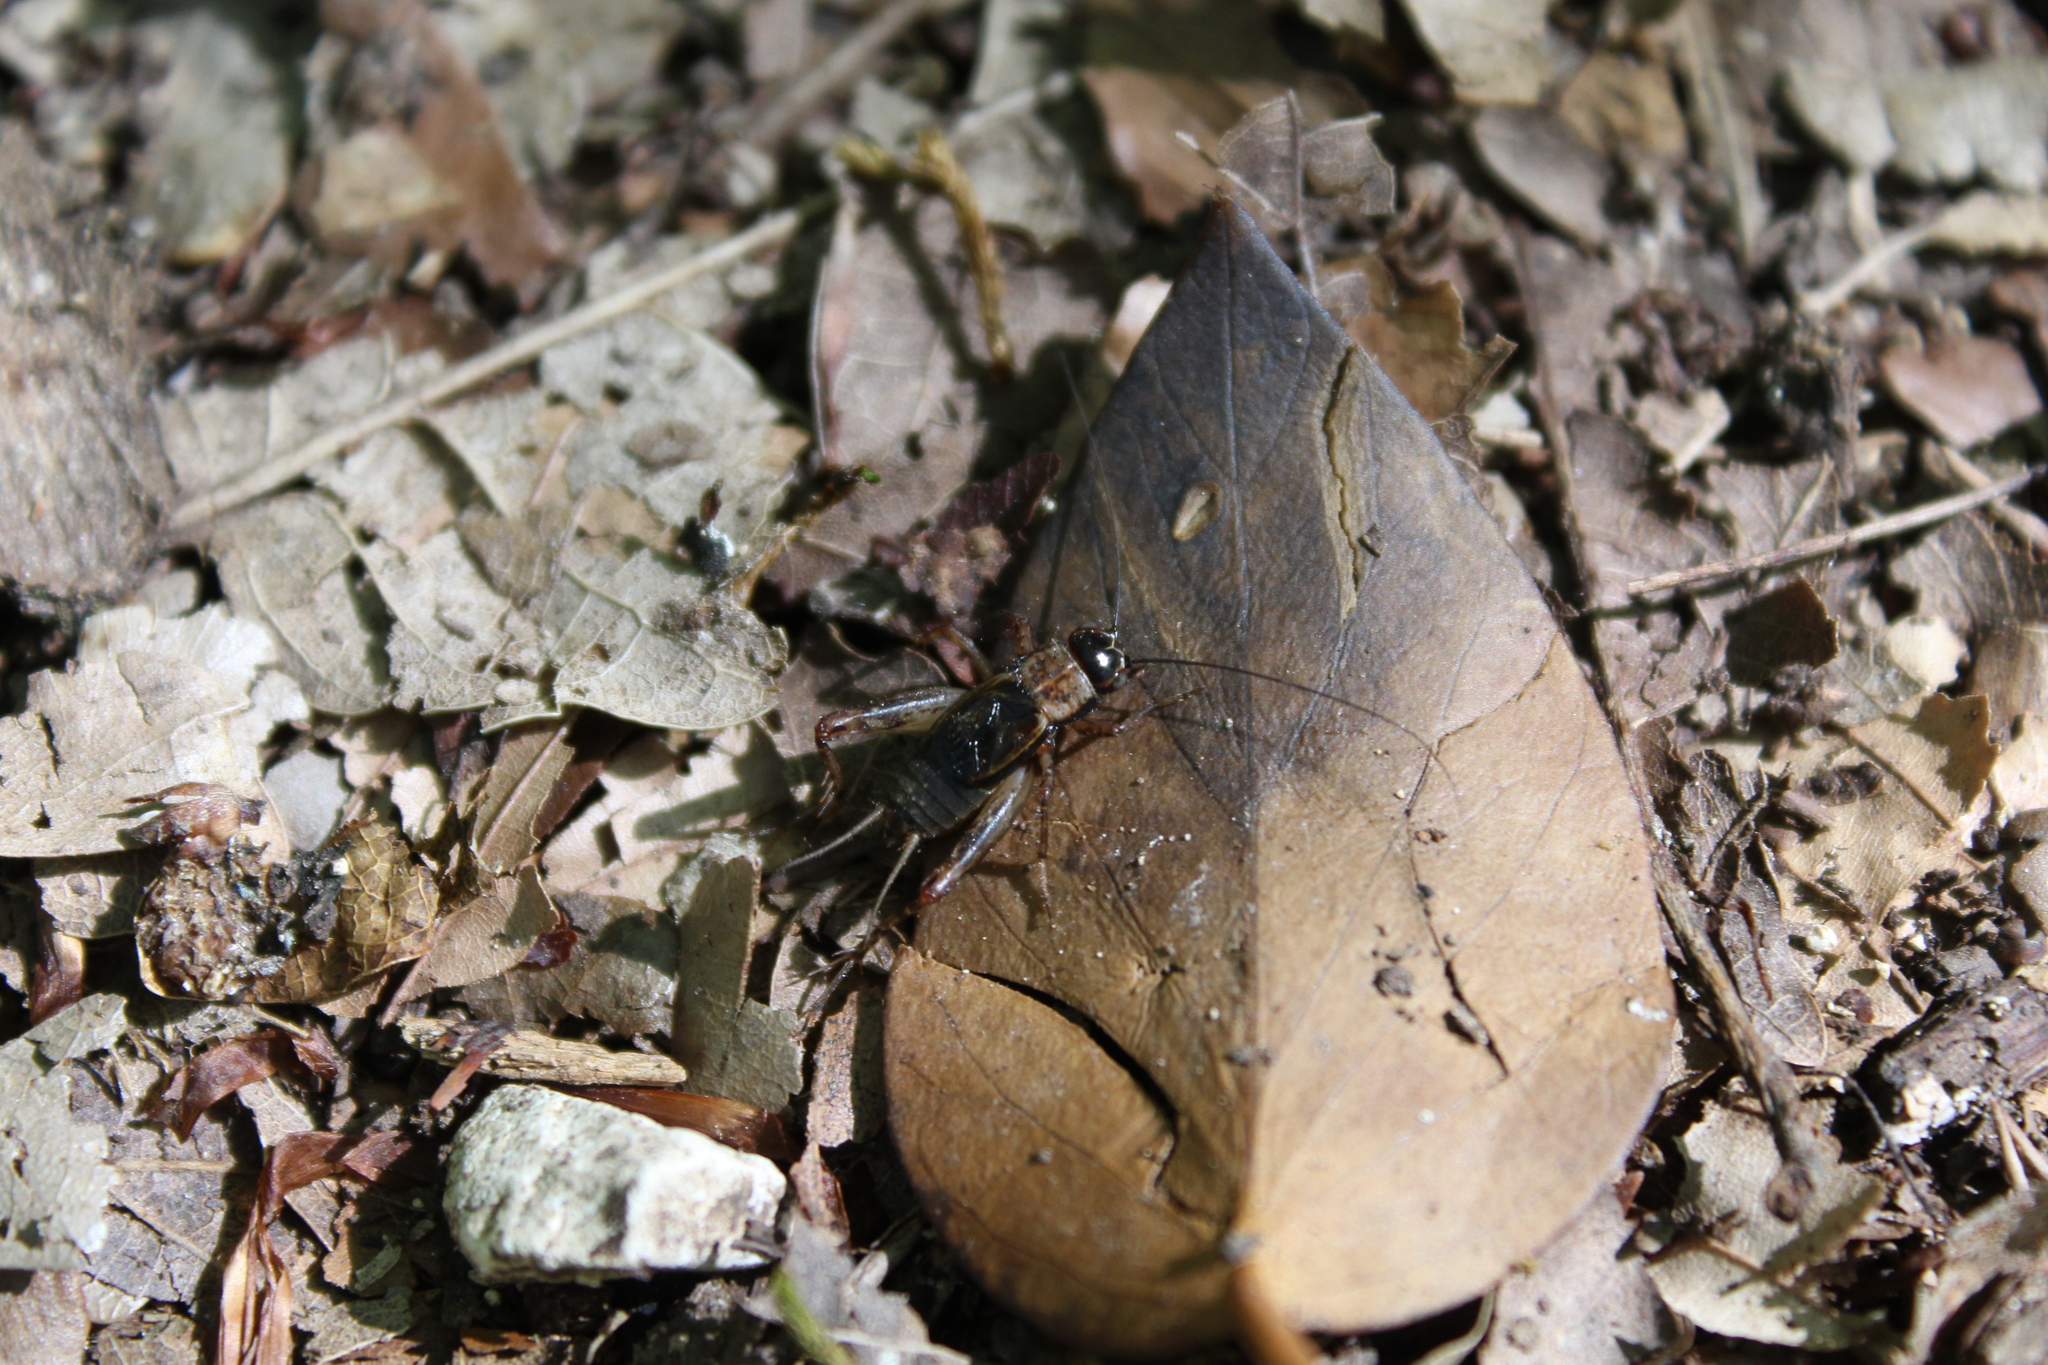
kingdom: Animalia
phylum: Arthropoda
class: Insecta
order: Orthoptera
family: Trigonidiidae
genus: Nemobius
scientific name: Nemobius sylvestris
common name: Wood-cricket
